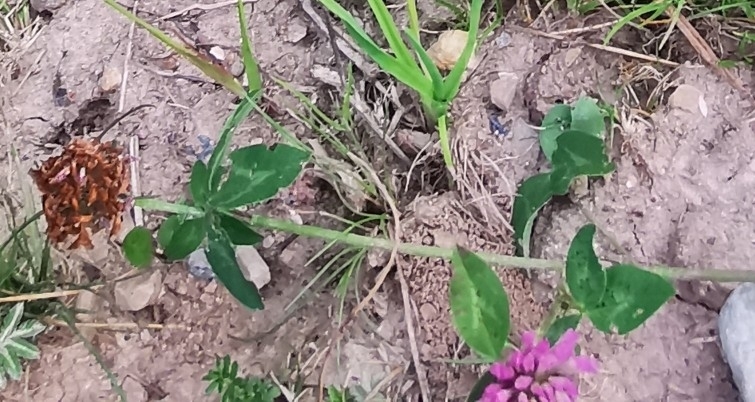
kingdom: Plantae
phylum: Tracheophyta
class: Magnoliopsida
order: Fabales
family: Fabaceae
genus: Trifolium
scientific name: Trifolium pratense
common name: Red clover
